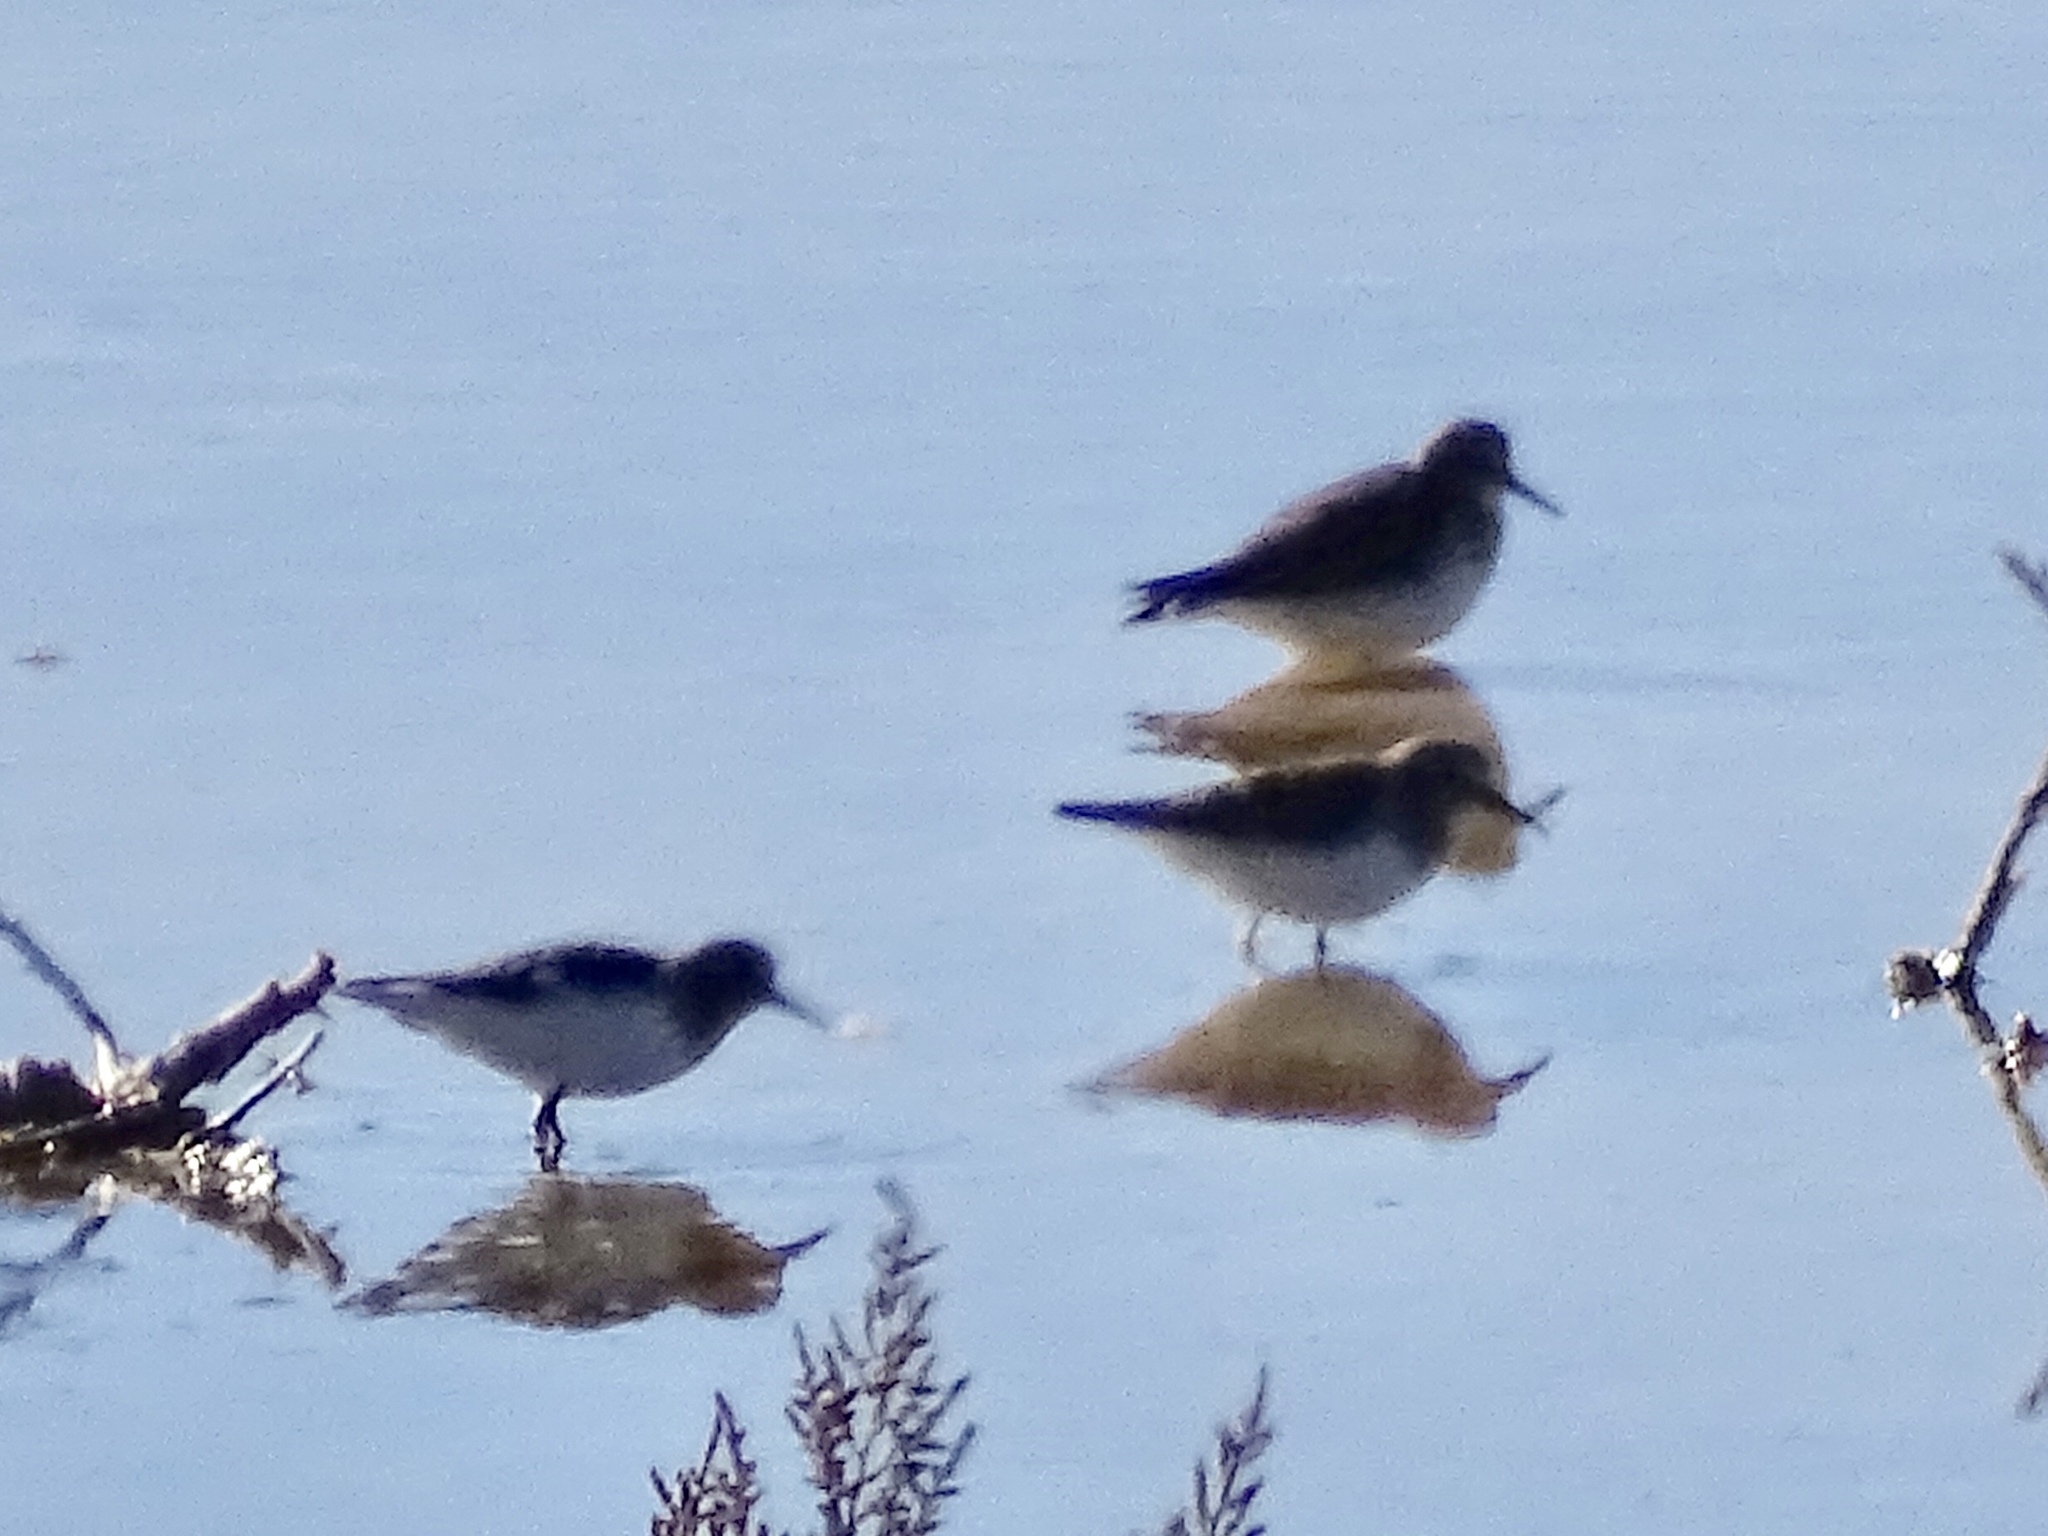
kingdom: Animalia
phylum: Chordata
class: Aves
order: Charadriiformes
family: Scolopacidae
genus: Calidris
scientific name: Calidris minutilla
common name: Least sandpiper
